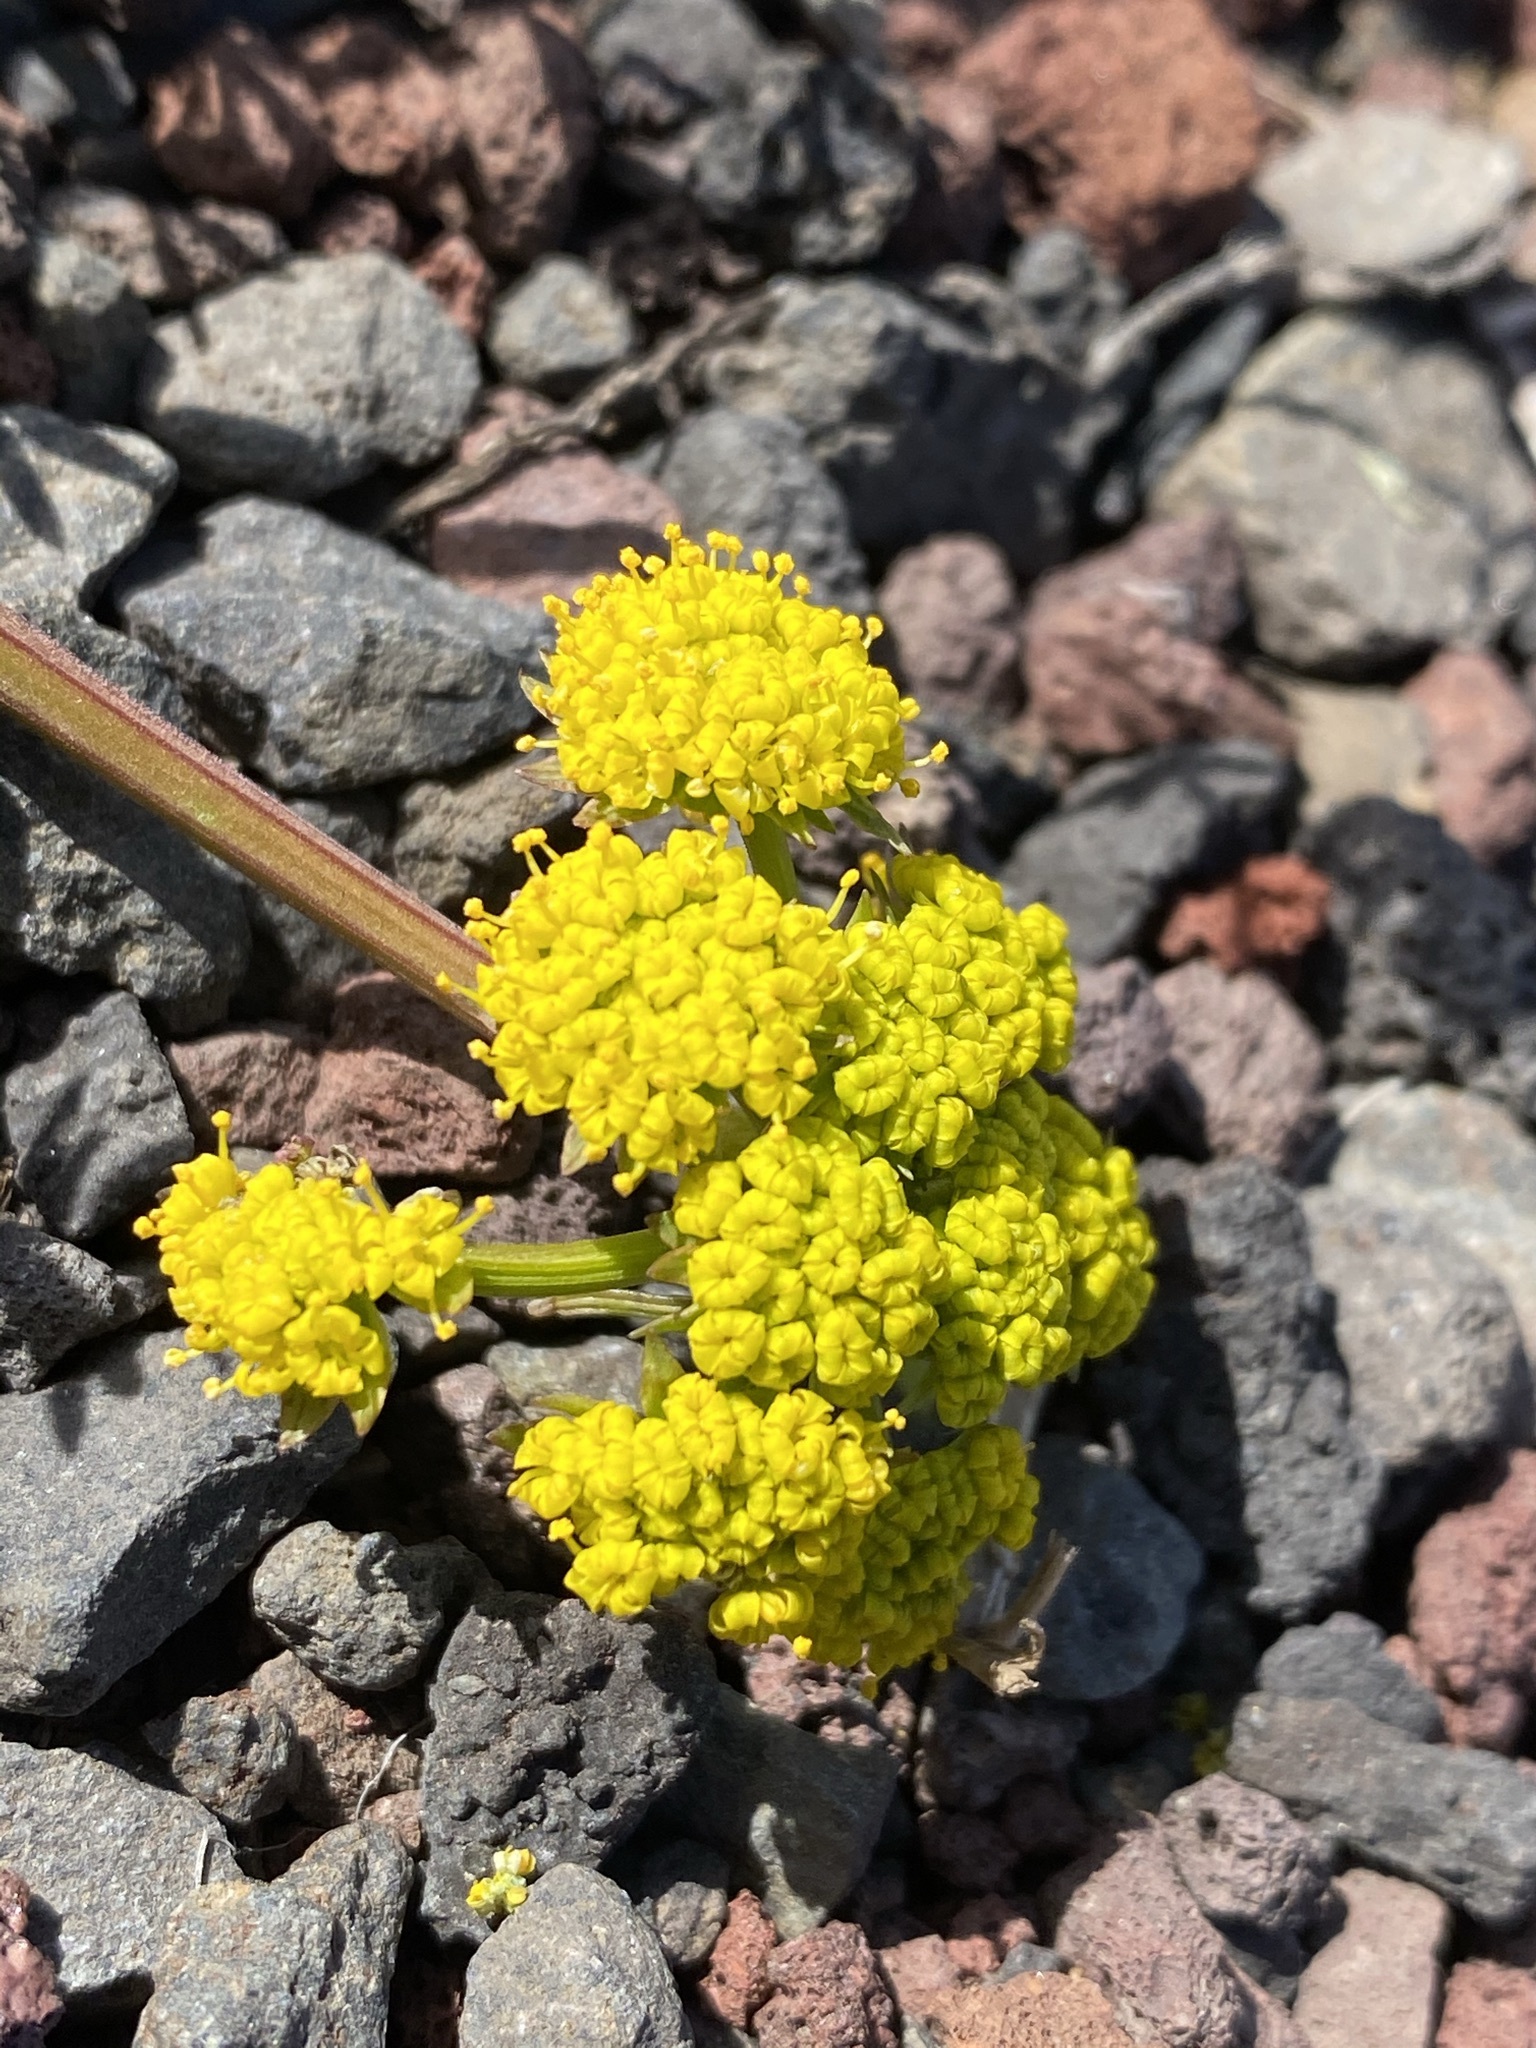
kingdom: Plantae
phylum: Tracheophyta
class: Magnoliopsida
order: Apiales
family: Apiaceae
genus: Lomatium
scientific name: Lomatium cous
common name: Biscuit-root
